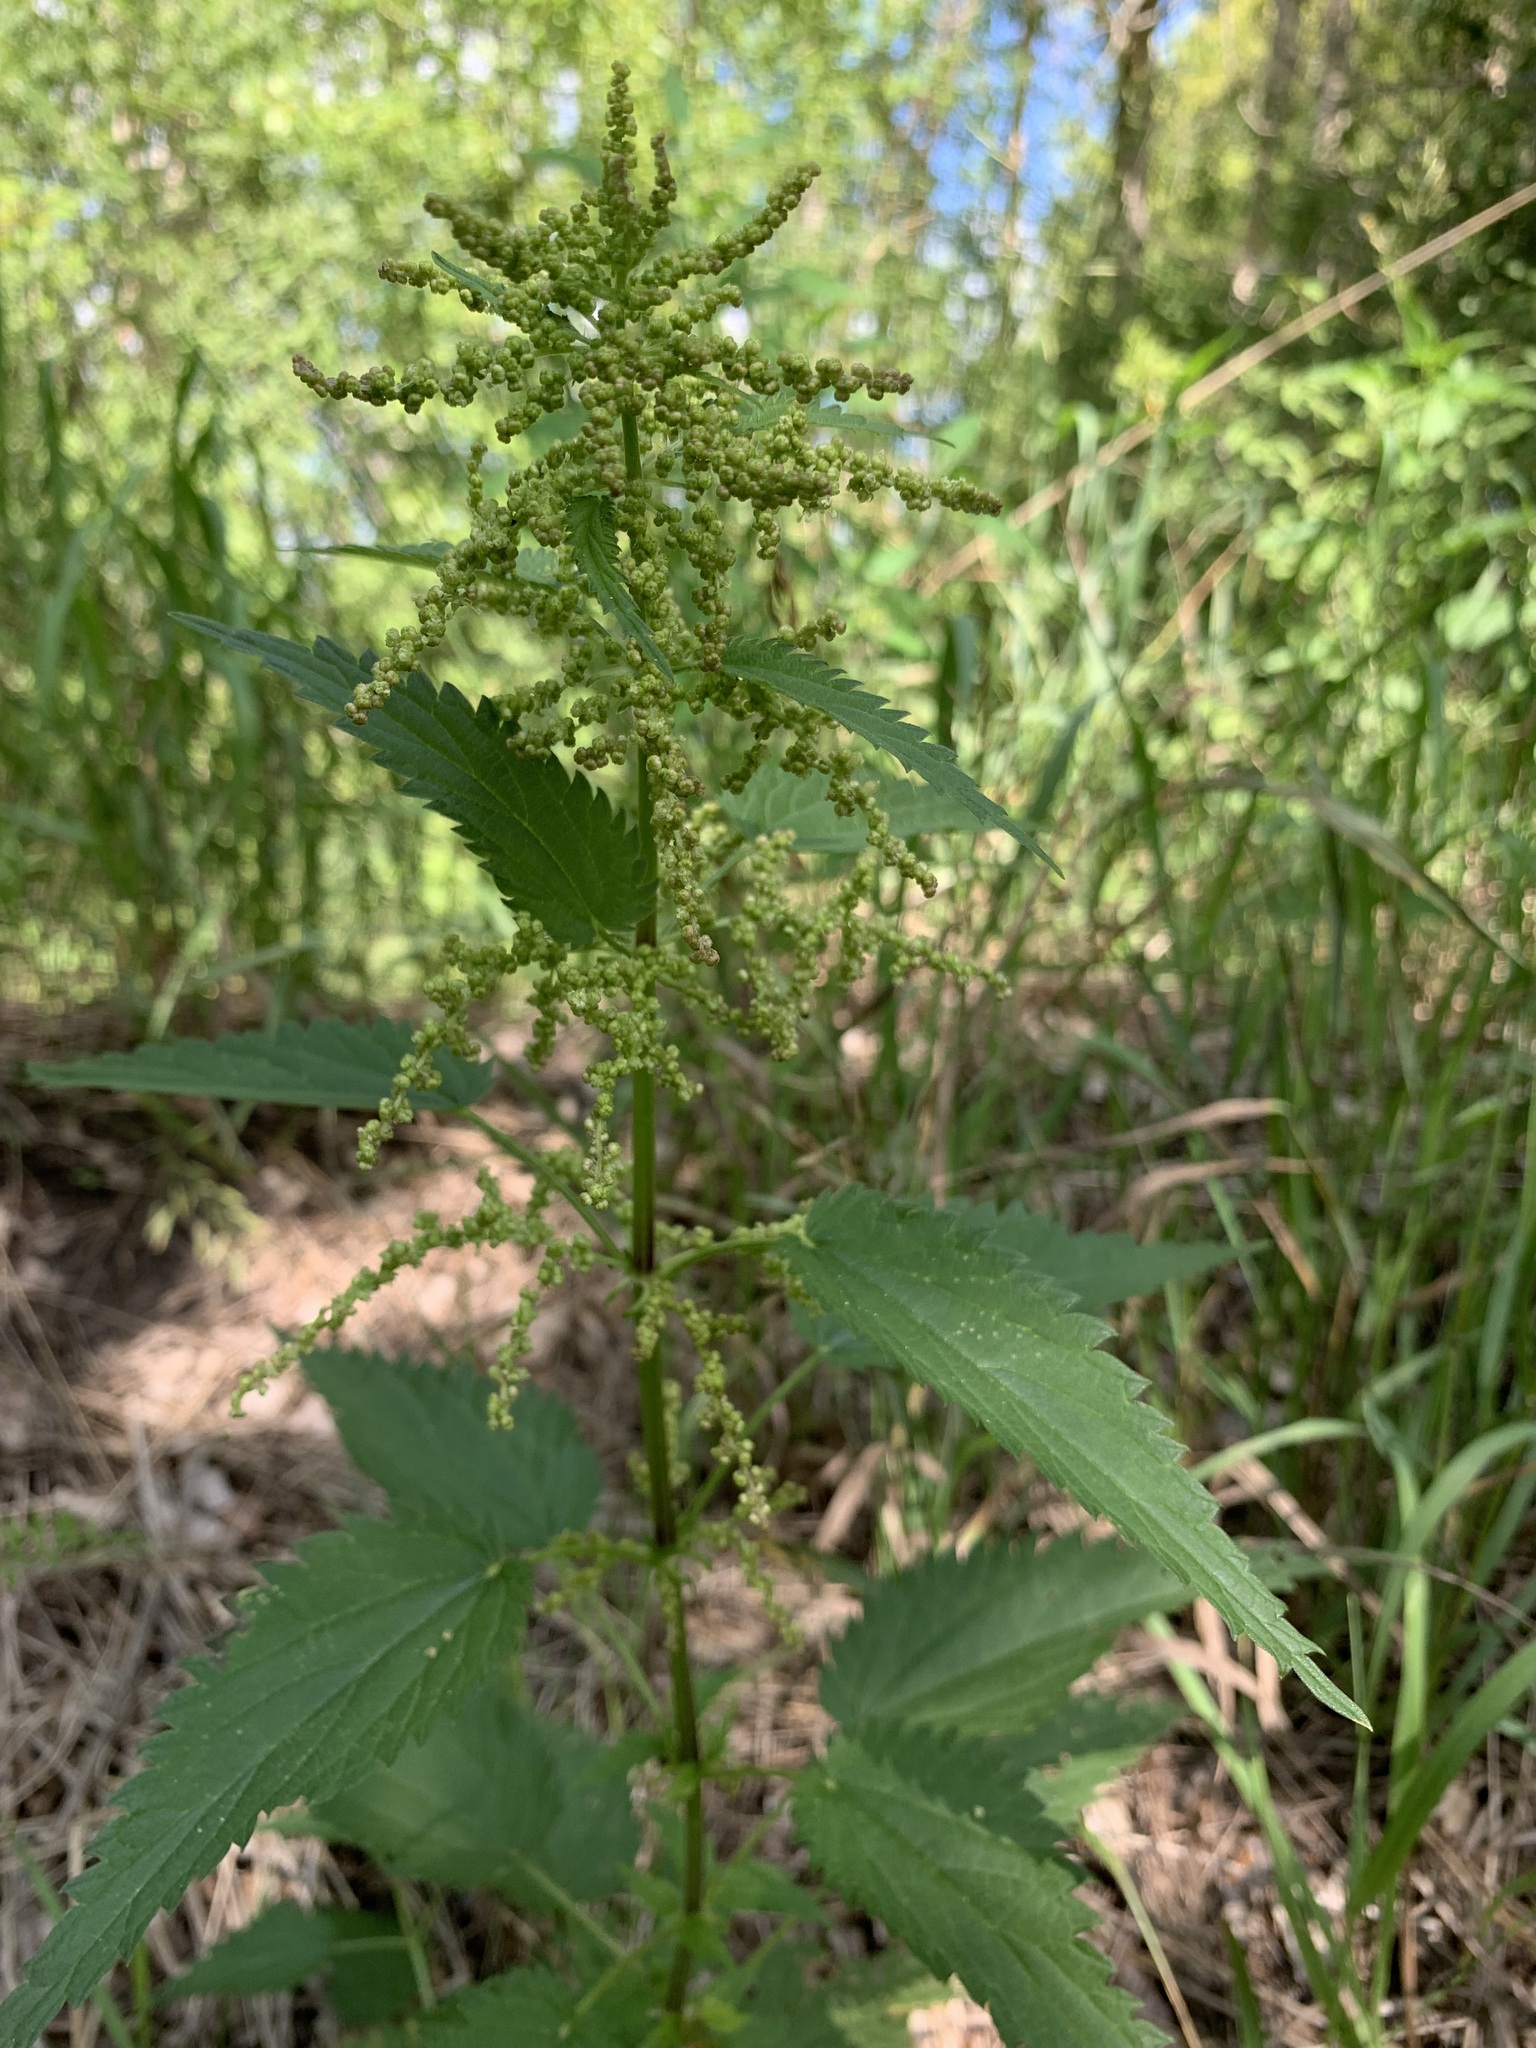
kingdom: Plantae
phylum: Tracheophyta
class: Magnoliopsida
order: Rosales
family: Urticaceae
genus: Urtica
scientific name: Urtica dioica
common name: Common nettle
